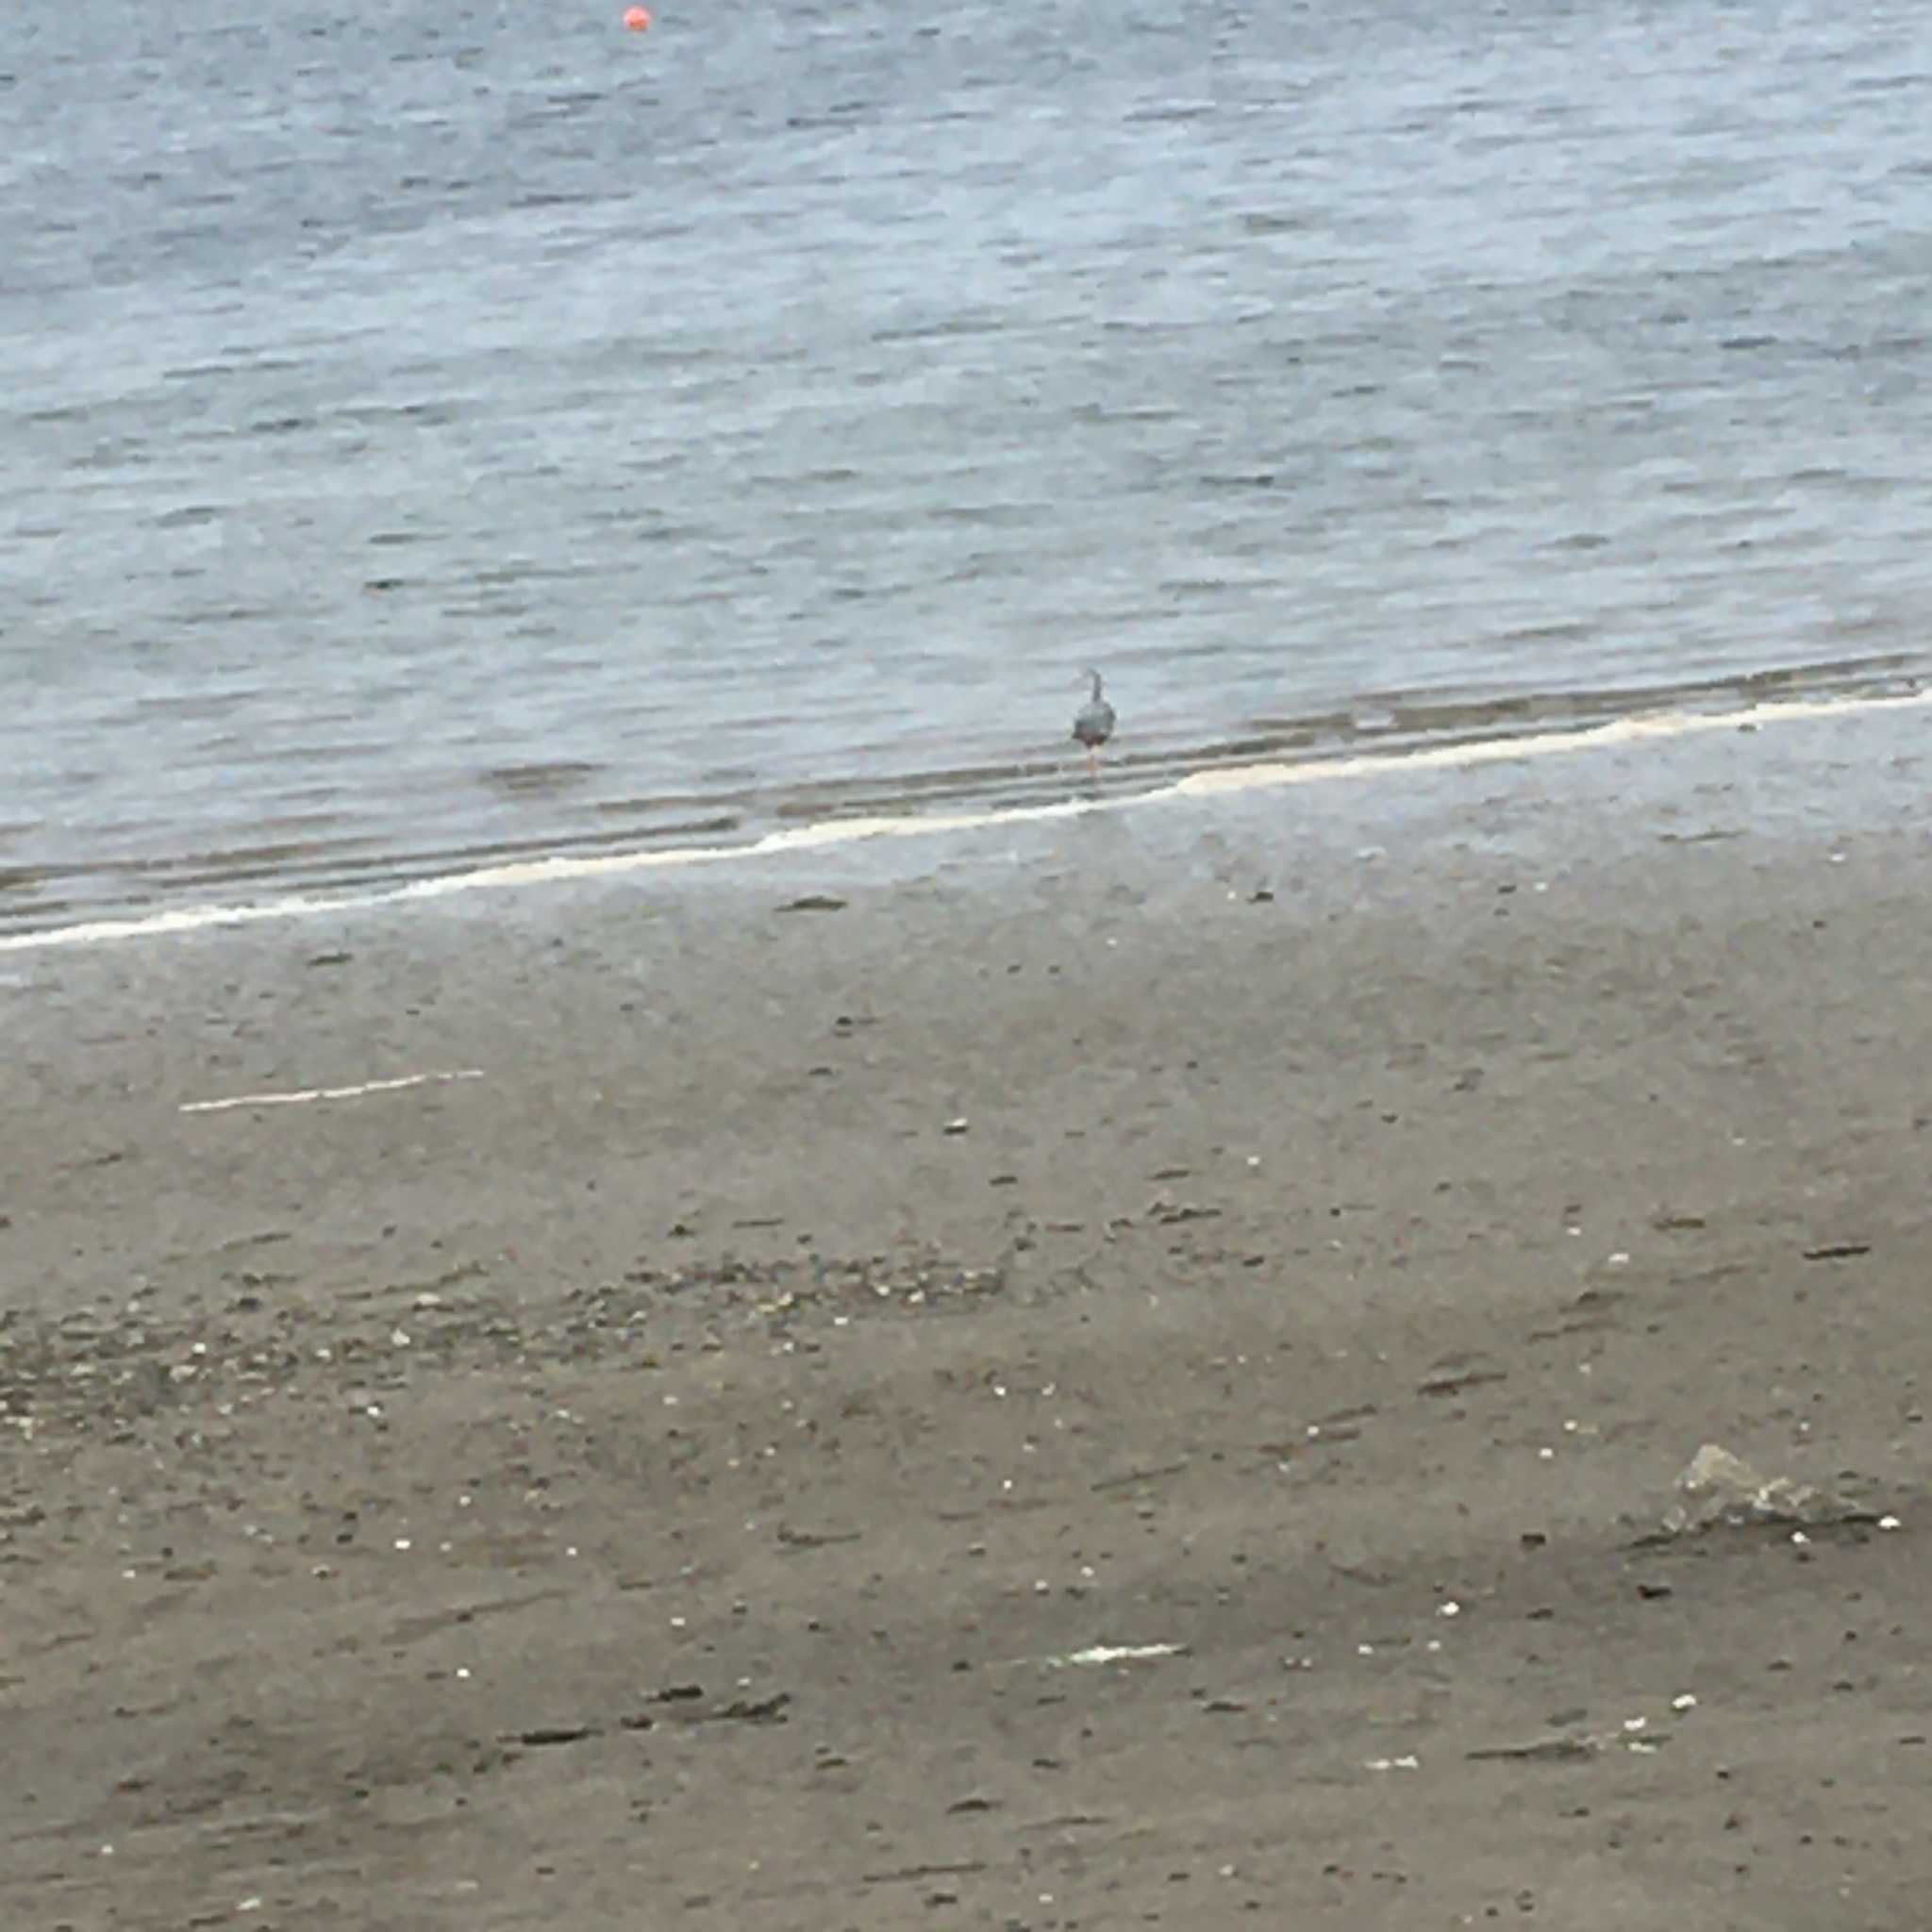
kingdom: Animalia
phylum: Chordata
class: Aves
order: Pelecaniformes
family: Ardeidae
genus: Ardea
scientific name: Ardea herodias
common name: Great blue heron
